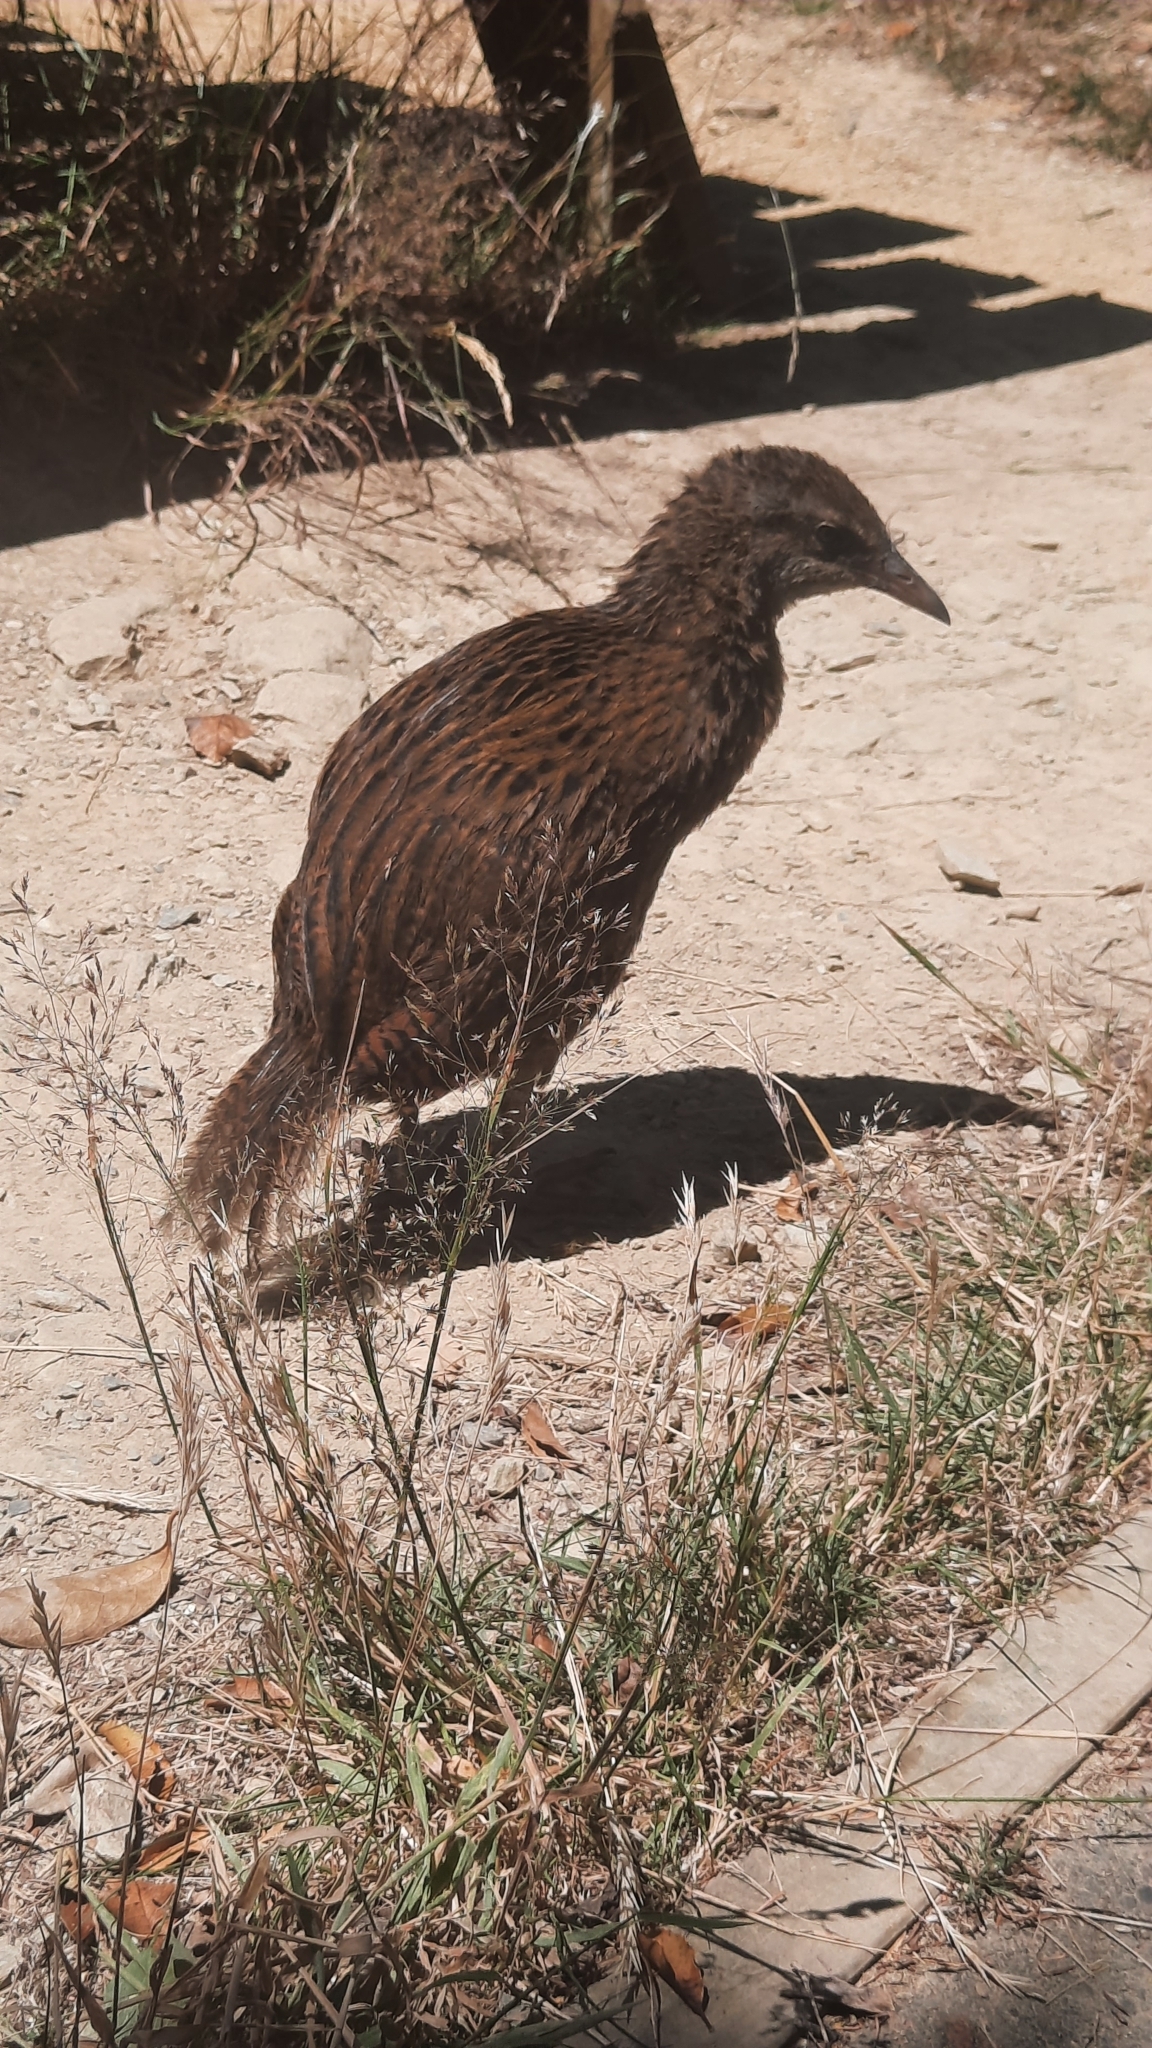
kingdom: Animalia
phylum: Chordata
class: Aves
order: Gruiformes
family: Rallidae
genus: Gallirallus
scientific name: Gallirallus australis
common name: Weka
